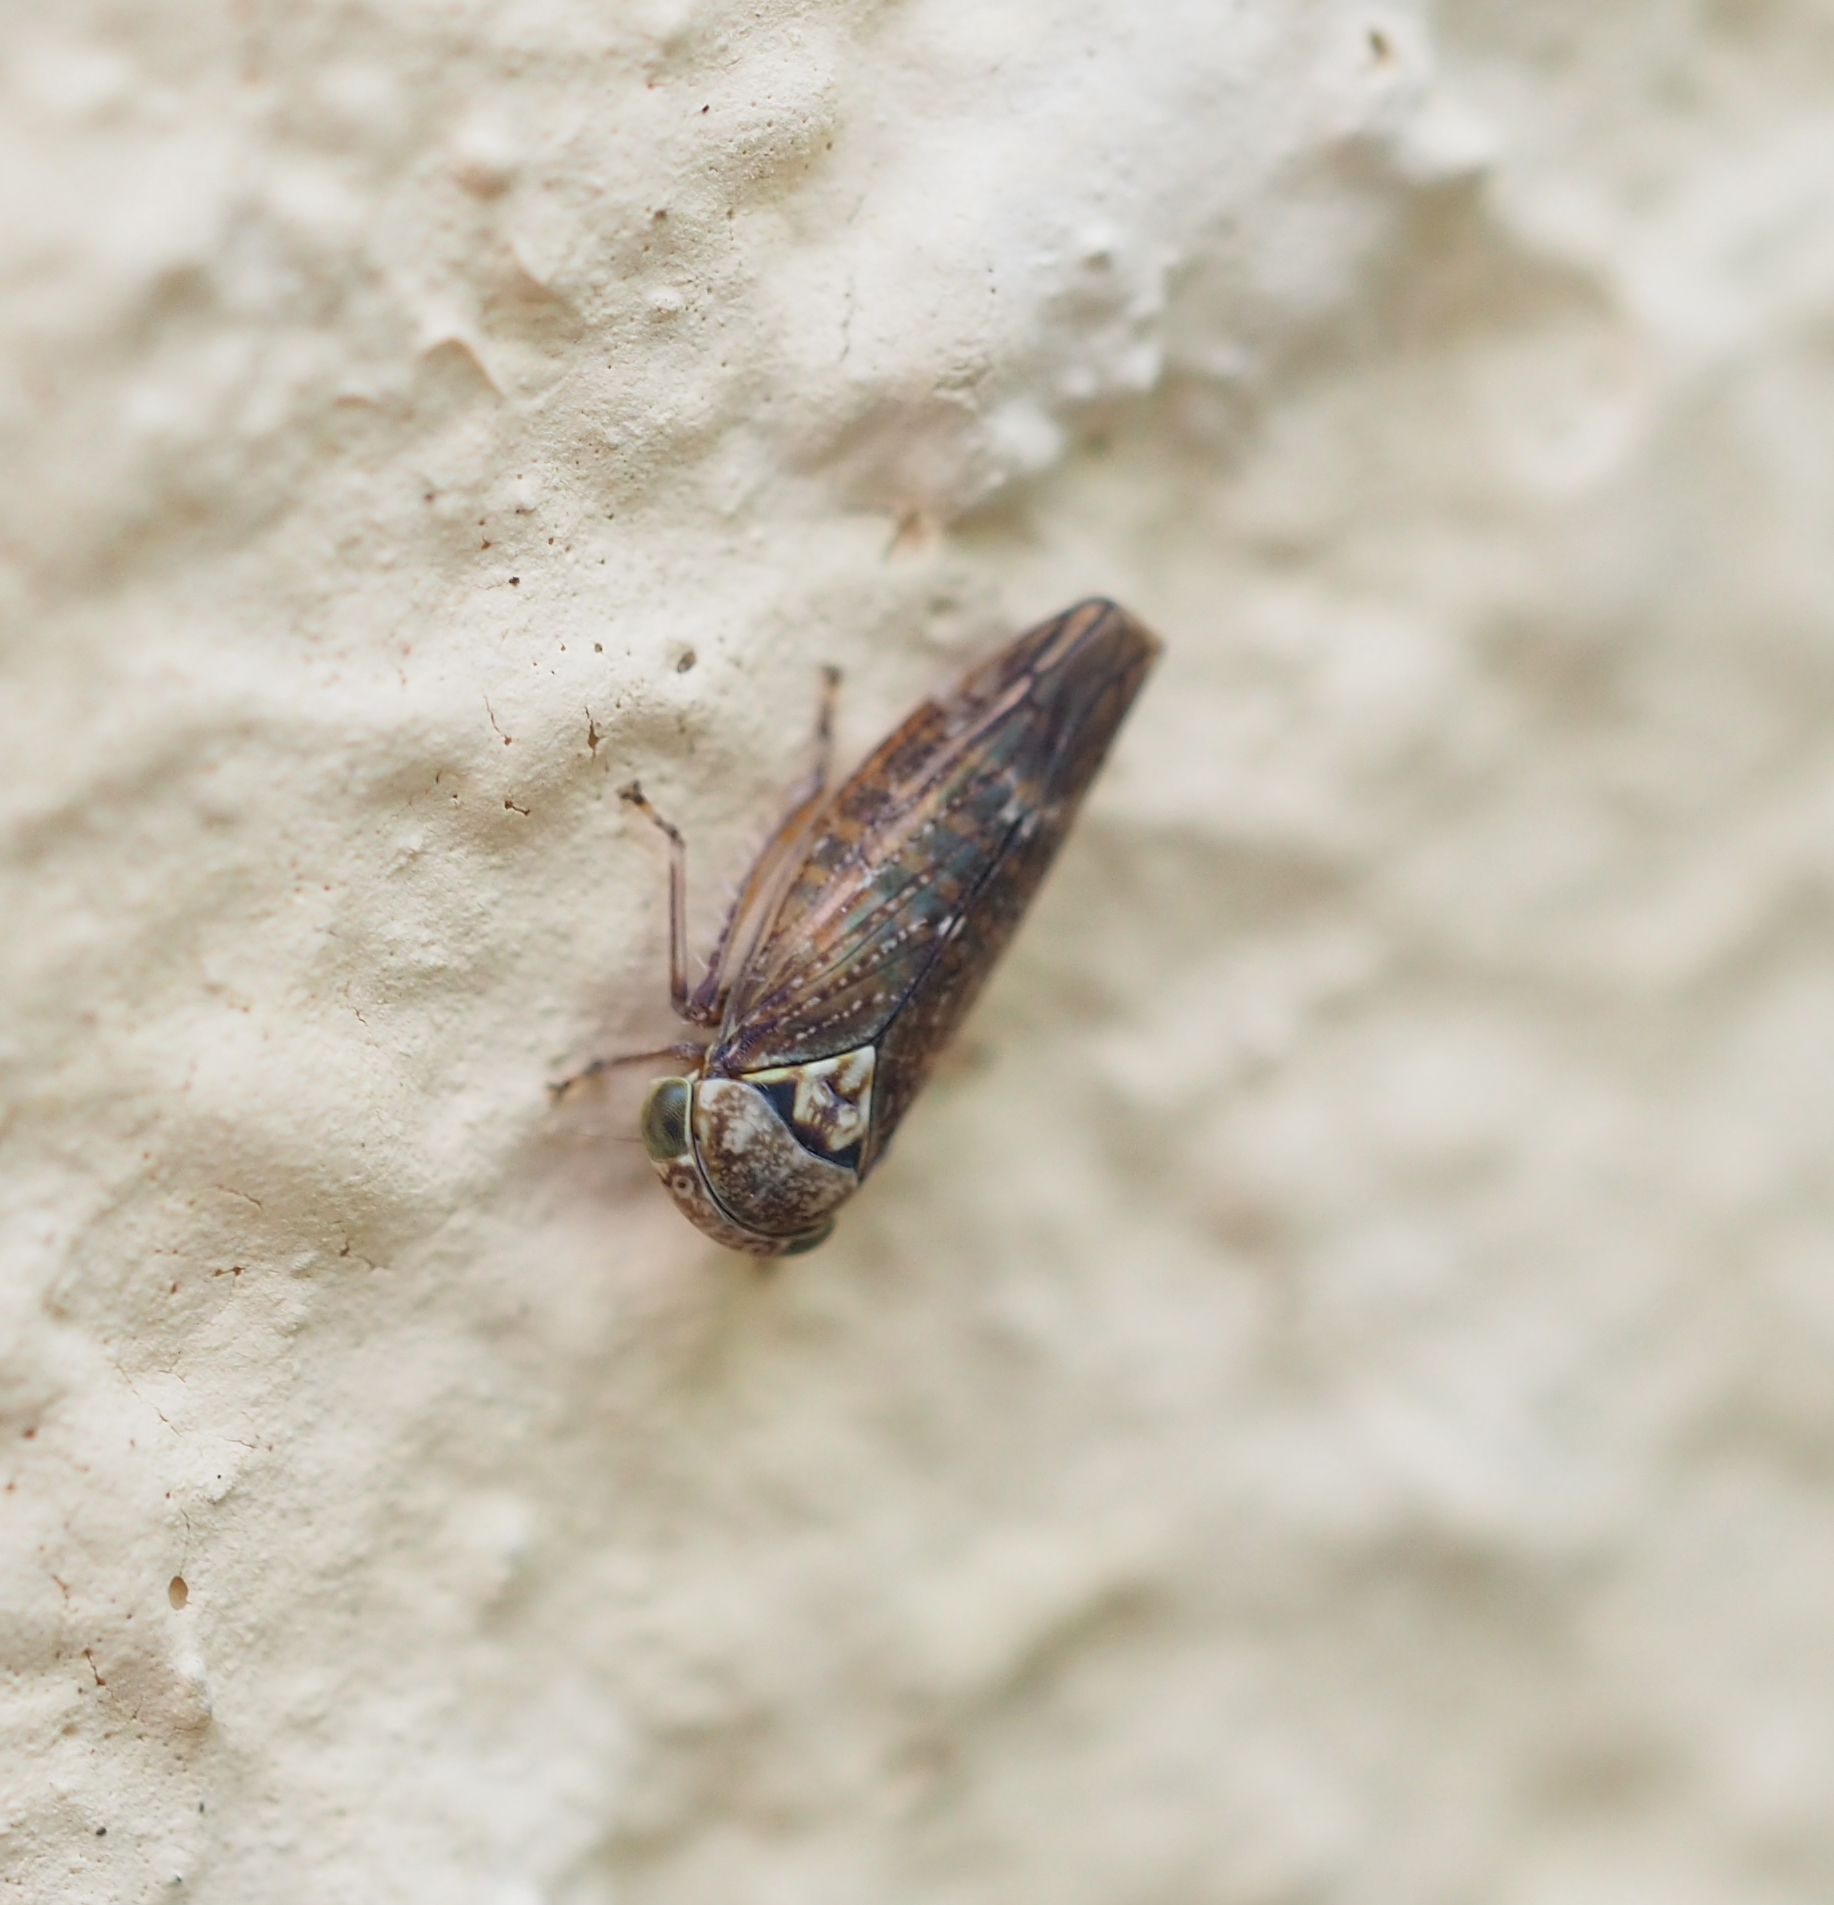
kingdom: Animalia
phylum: Arthropoda
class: Insecta
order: Hemiptera
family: Cicadellidae
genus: Acericerus
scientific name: Acericerus
